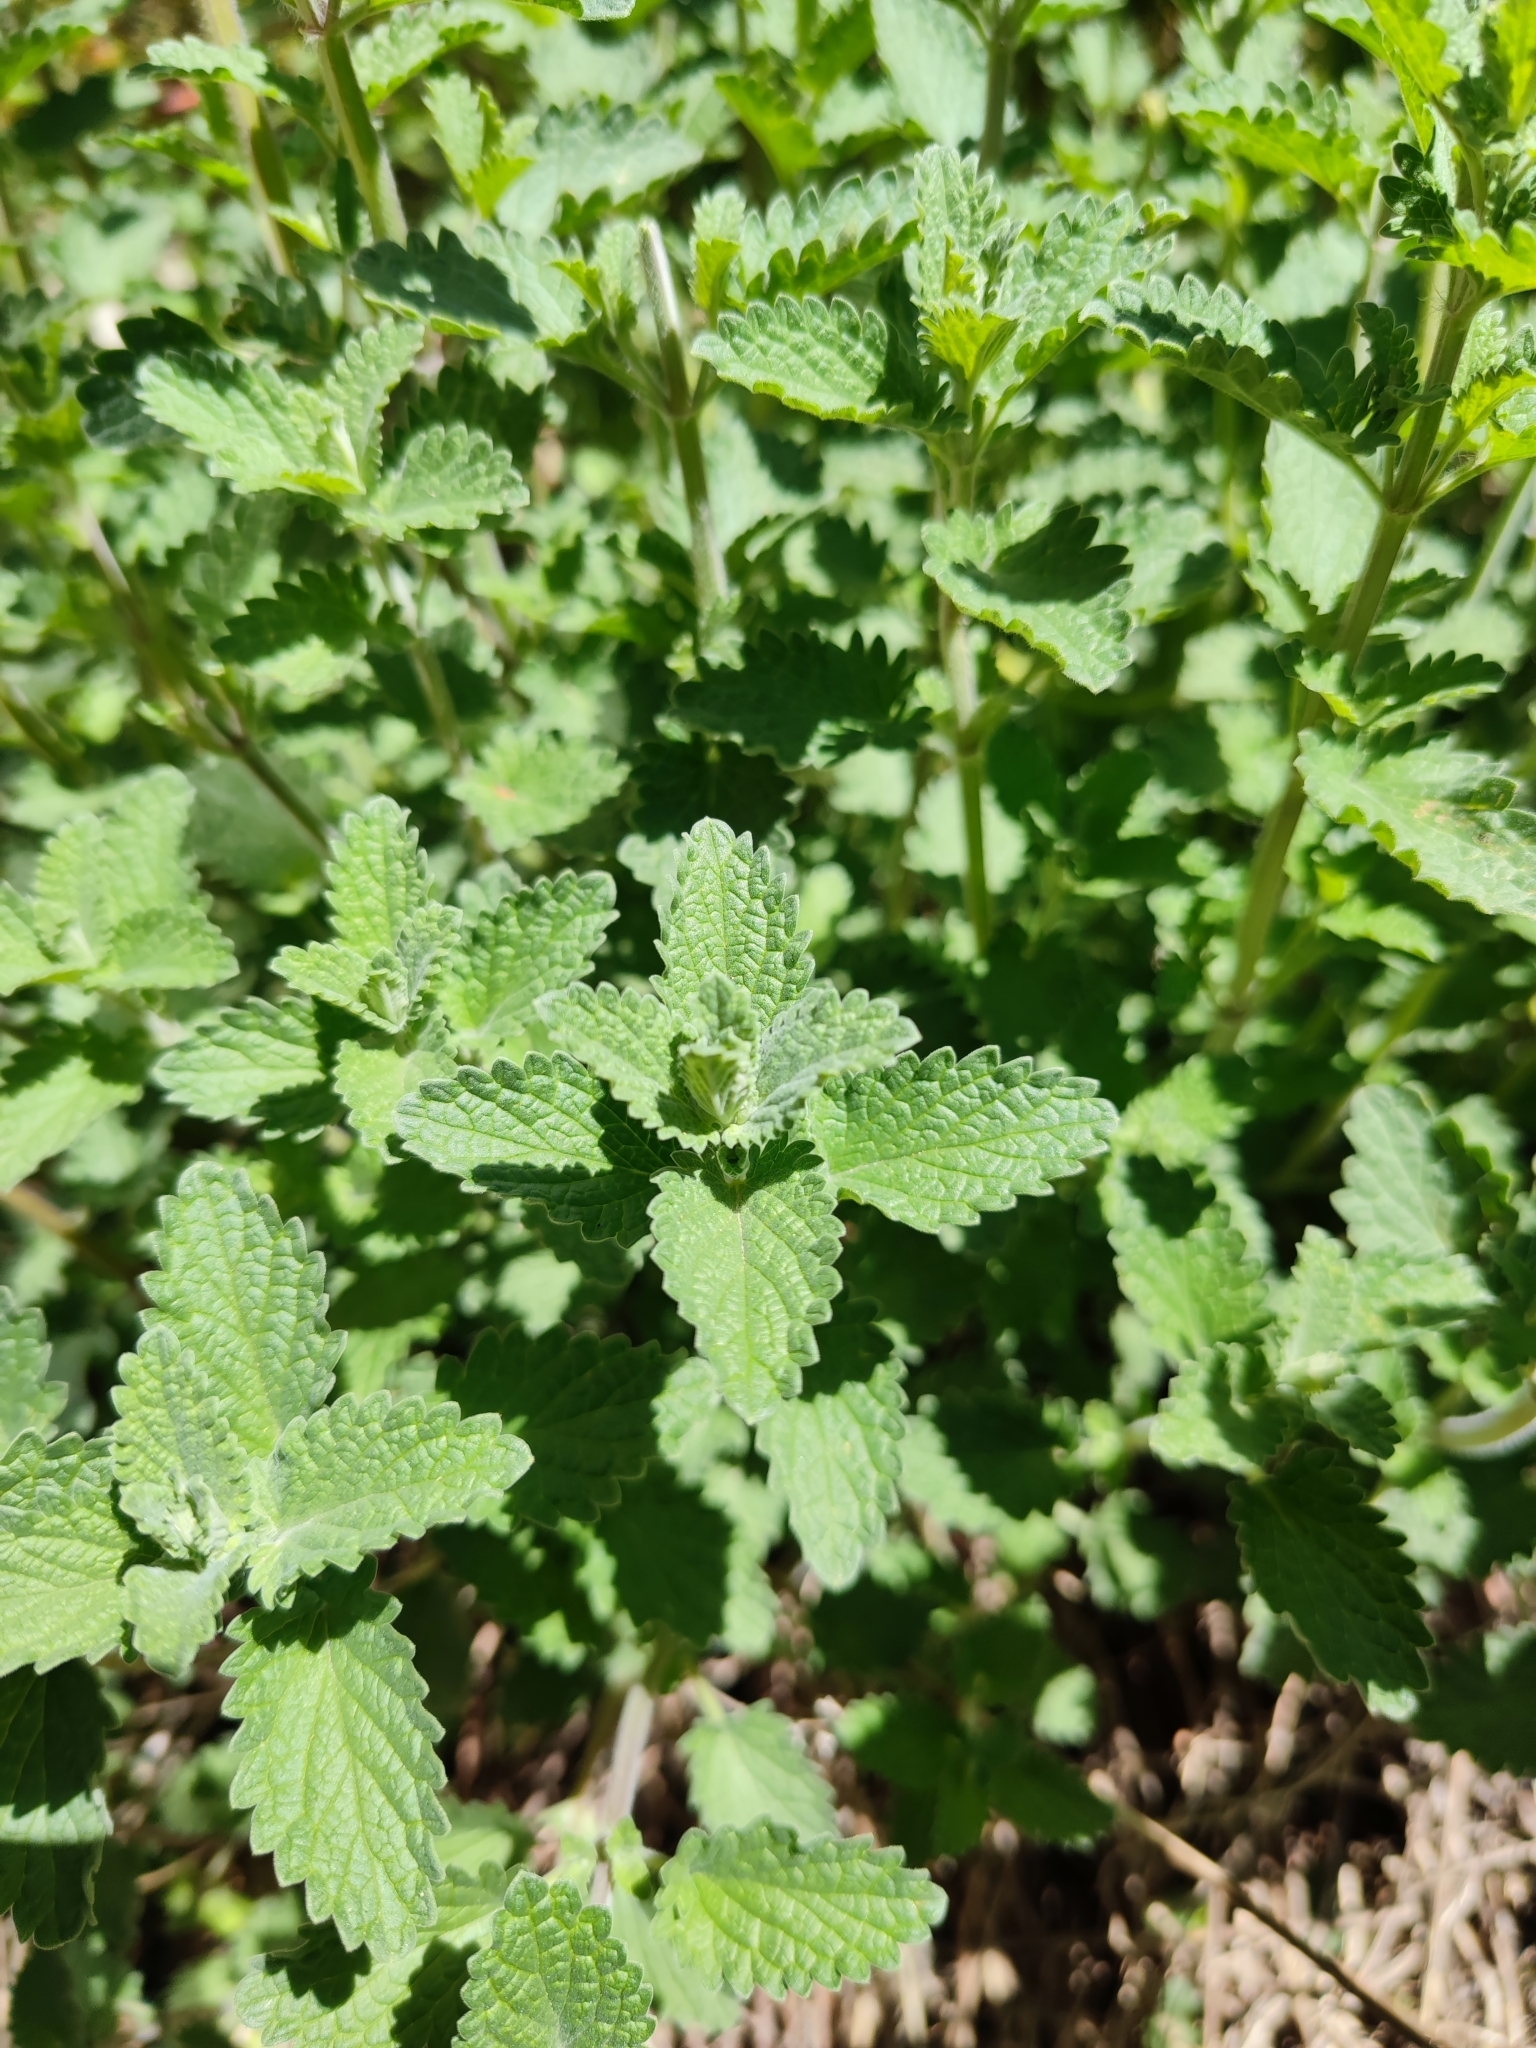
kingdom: Plantae
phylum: Tracheophyta
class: Magnoliopsida
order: Lamiales
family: Lamiaceae
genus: Nepeta
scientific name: Nepeta faassenii
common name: Catmint
